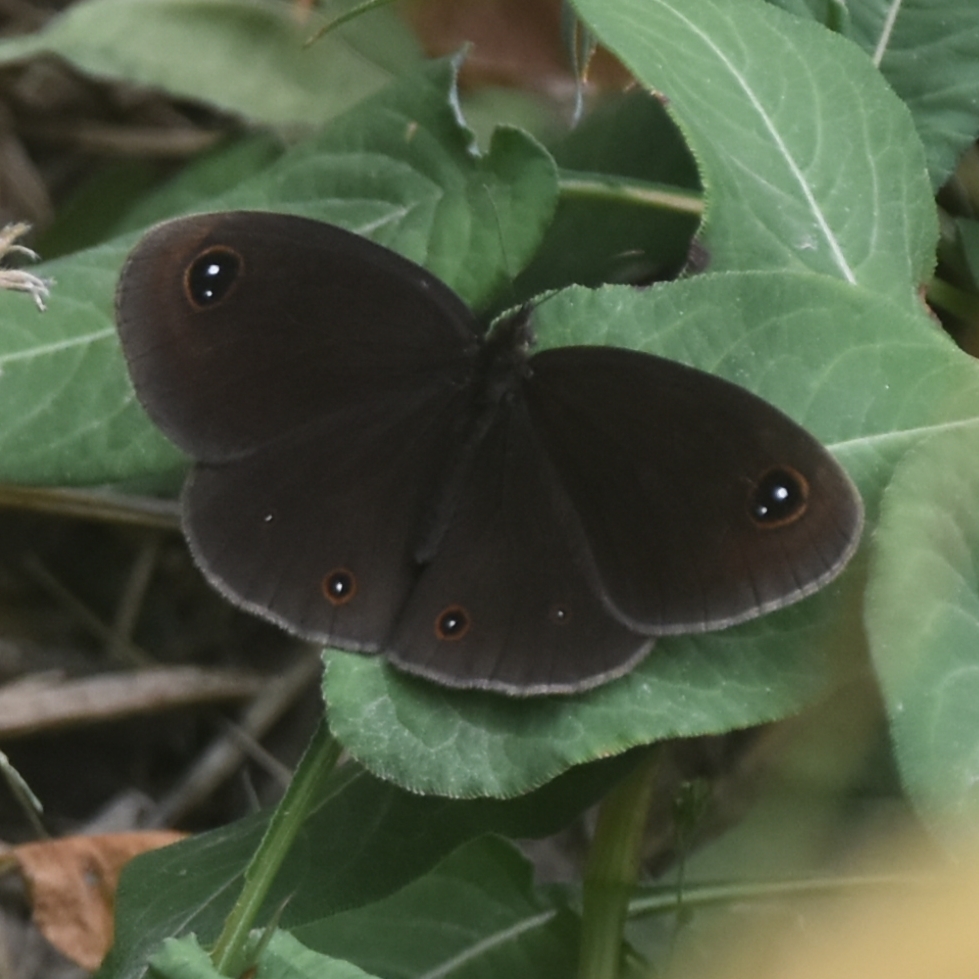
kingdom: Animalia
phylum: Arthropoda
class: Insecta
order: Lepidoptera
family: Nymphalidae
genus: Callerebia
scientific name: Callerebia nirmala
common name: Common argus
